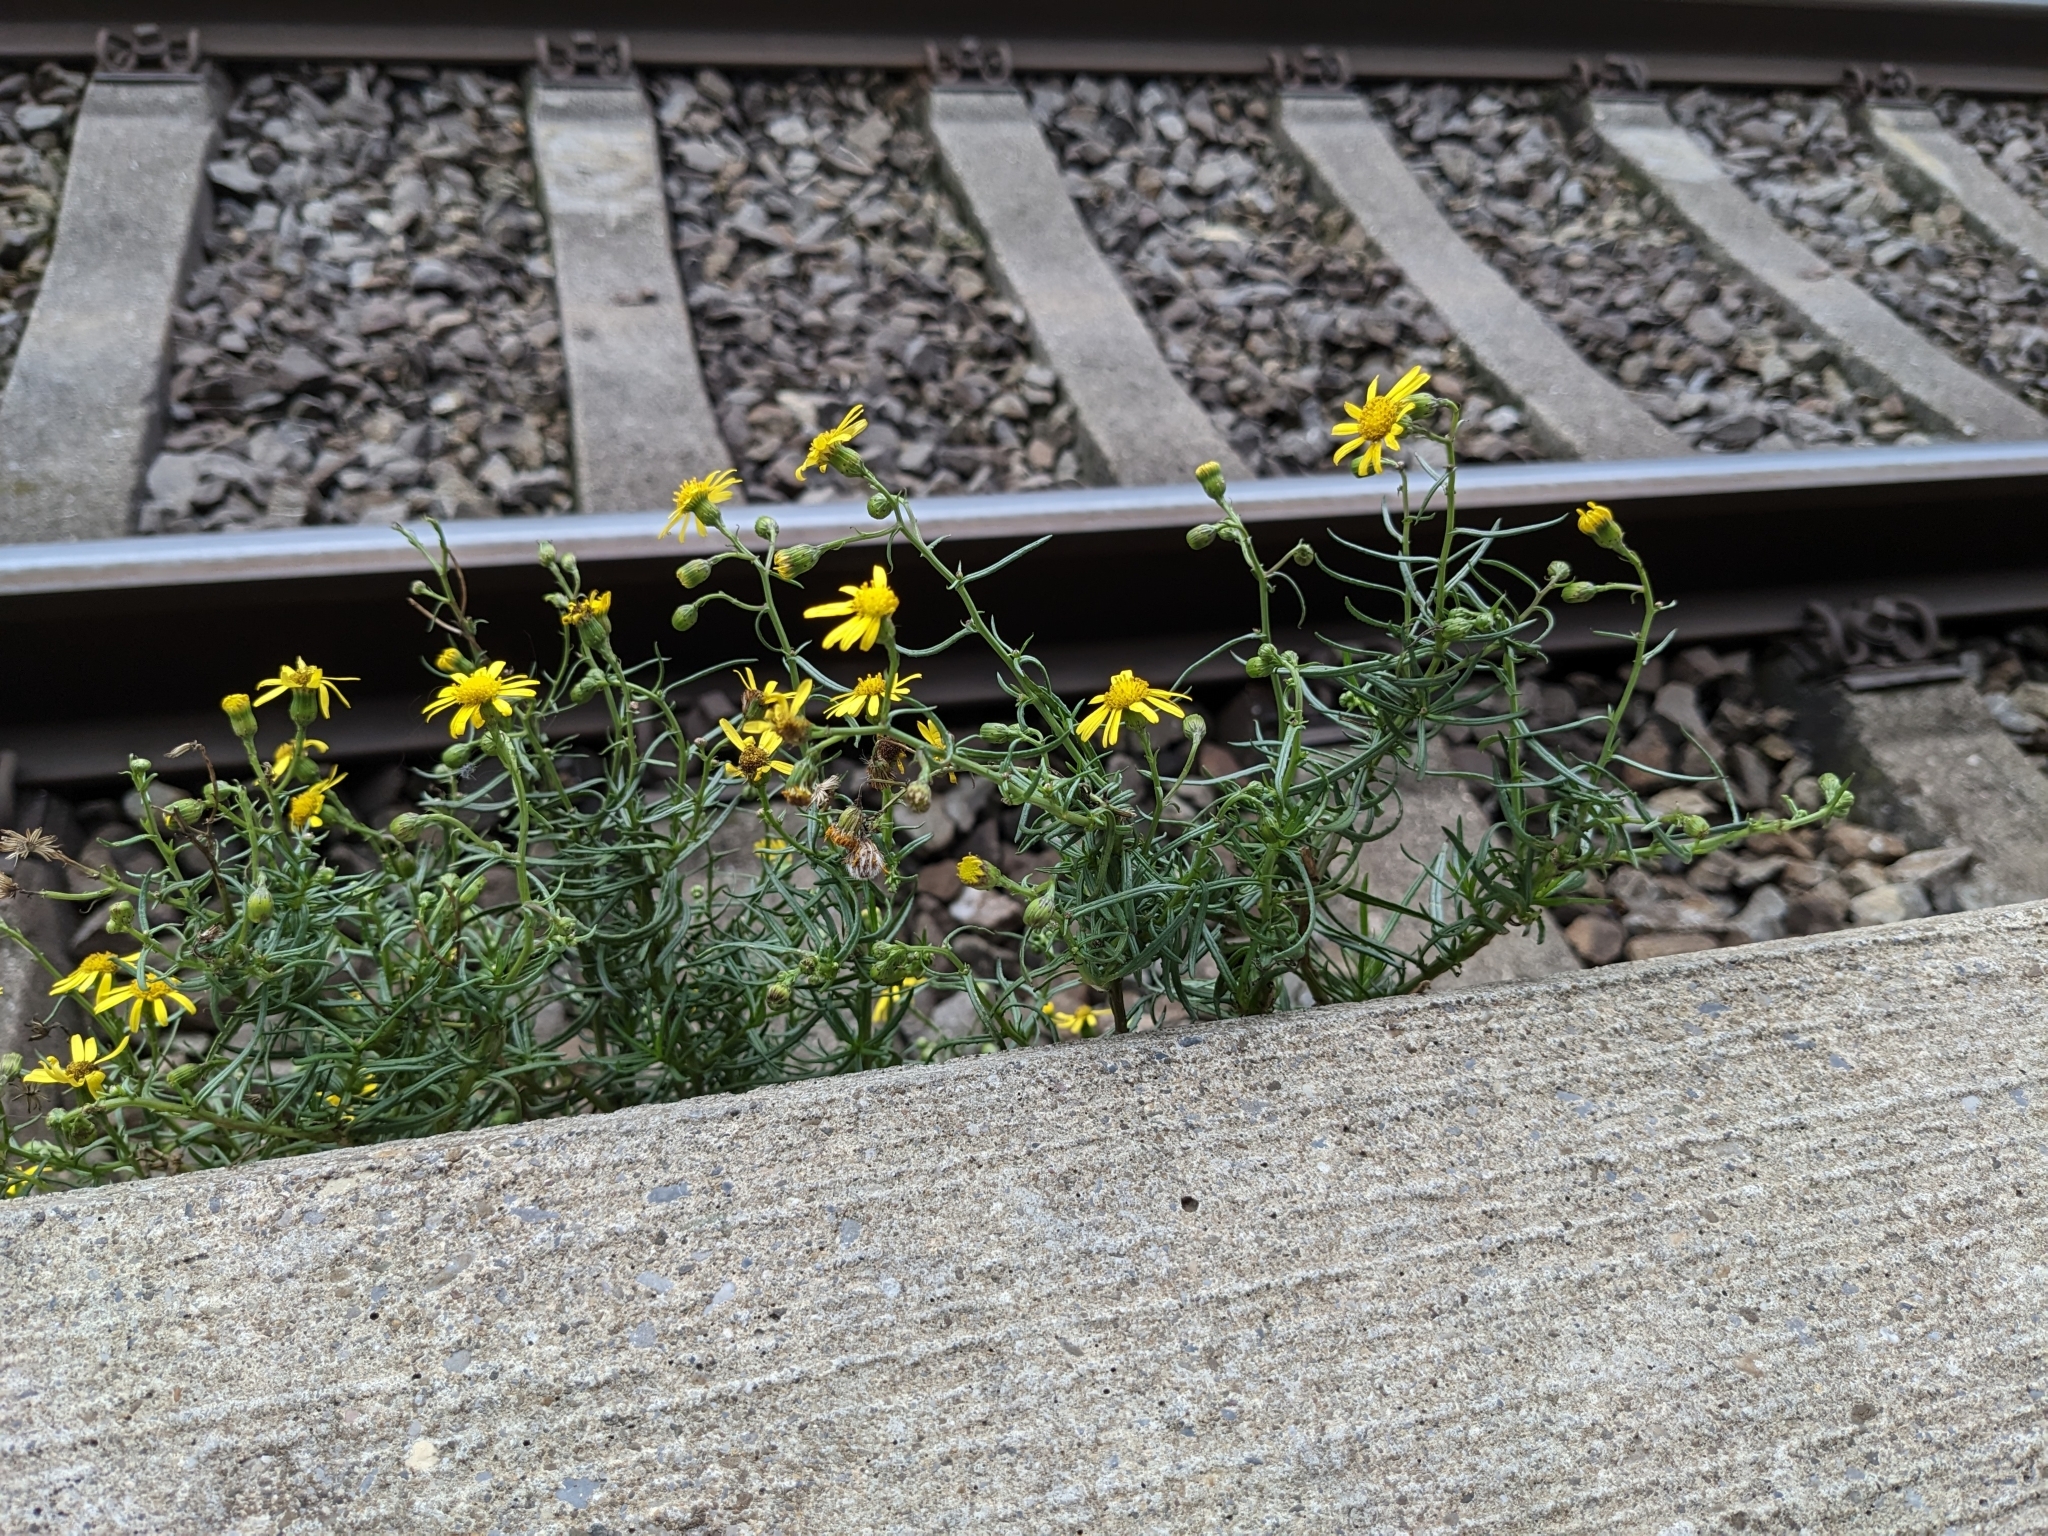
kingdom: Plantae
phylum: Tracheophyta
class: Magnoliopsida
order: Asterales
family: Asteraceae
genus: Senecio
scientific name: Senecio inaequidens
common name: Narrow-leaved ragwort
